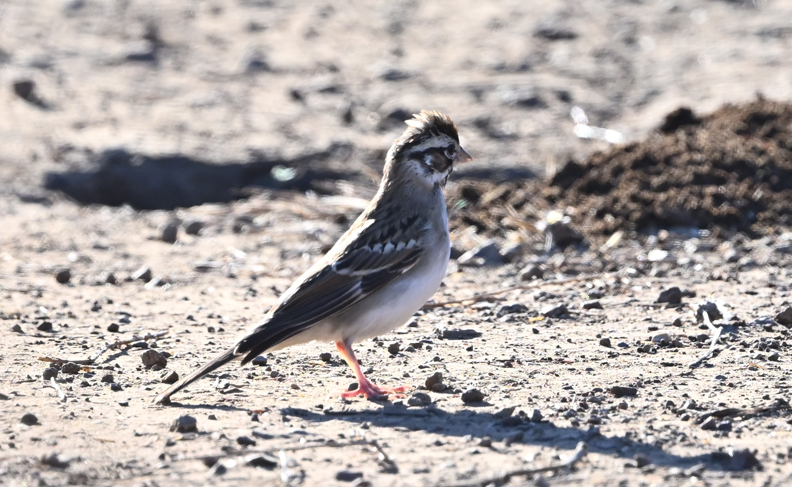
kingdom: Animalia
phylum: Chordata
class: Aves
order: Passeriformes
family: Passerellidae
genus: Chondestes
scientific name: Chondestes grammacus
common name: Lark sparrow
